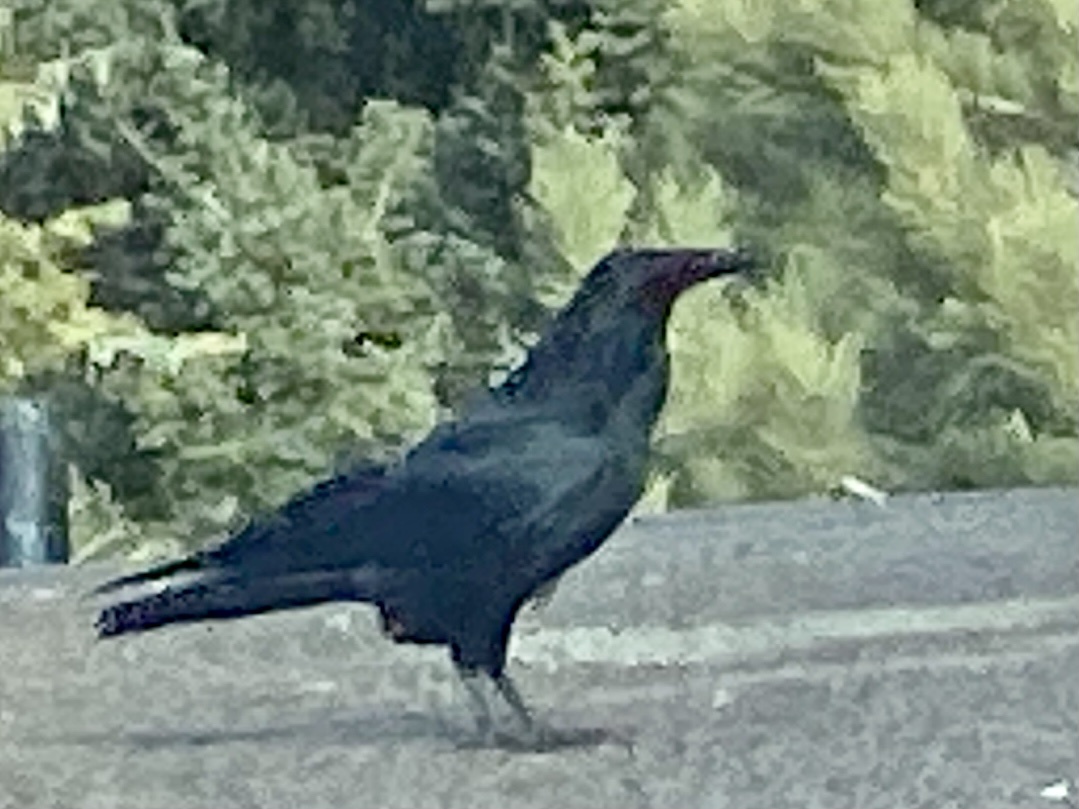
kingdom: Animalia
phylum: Chordata
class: Aves
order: Passeriformes
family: Corvidae
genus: Corvus
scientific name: Corvus corax
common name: Common raven
